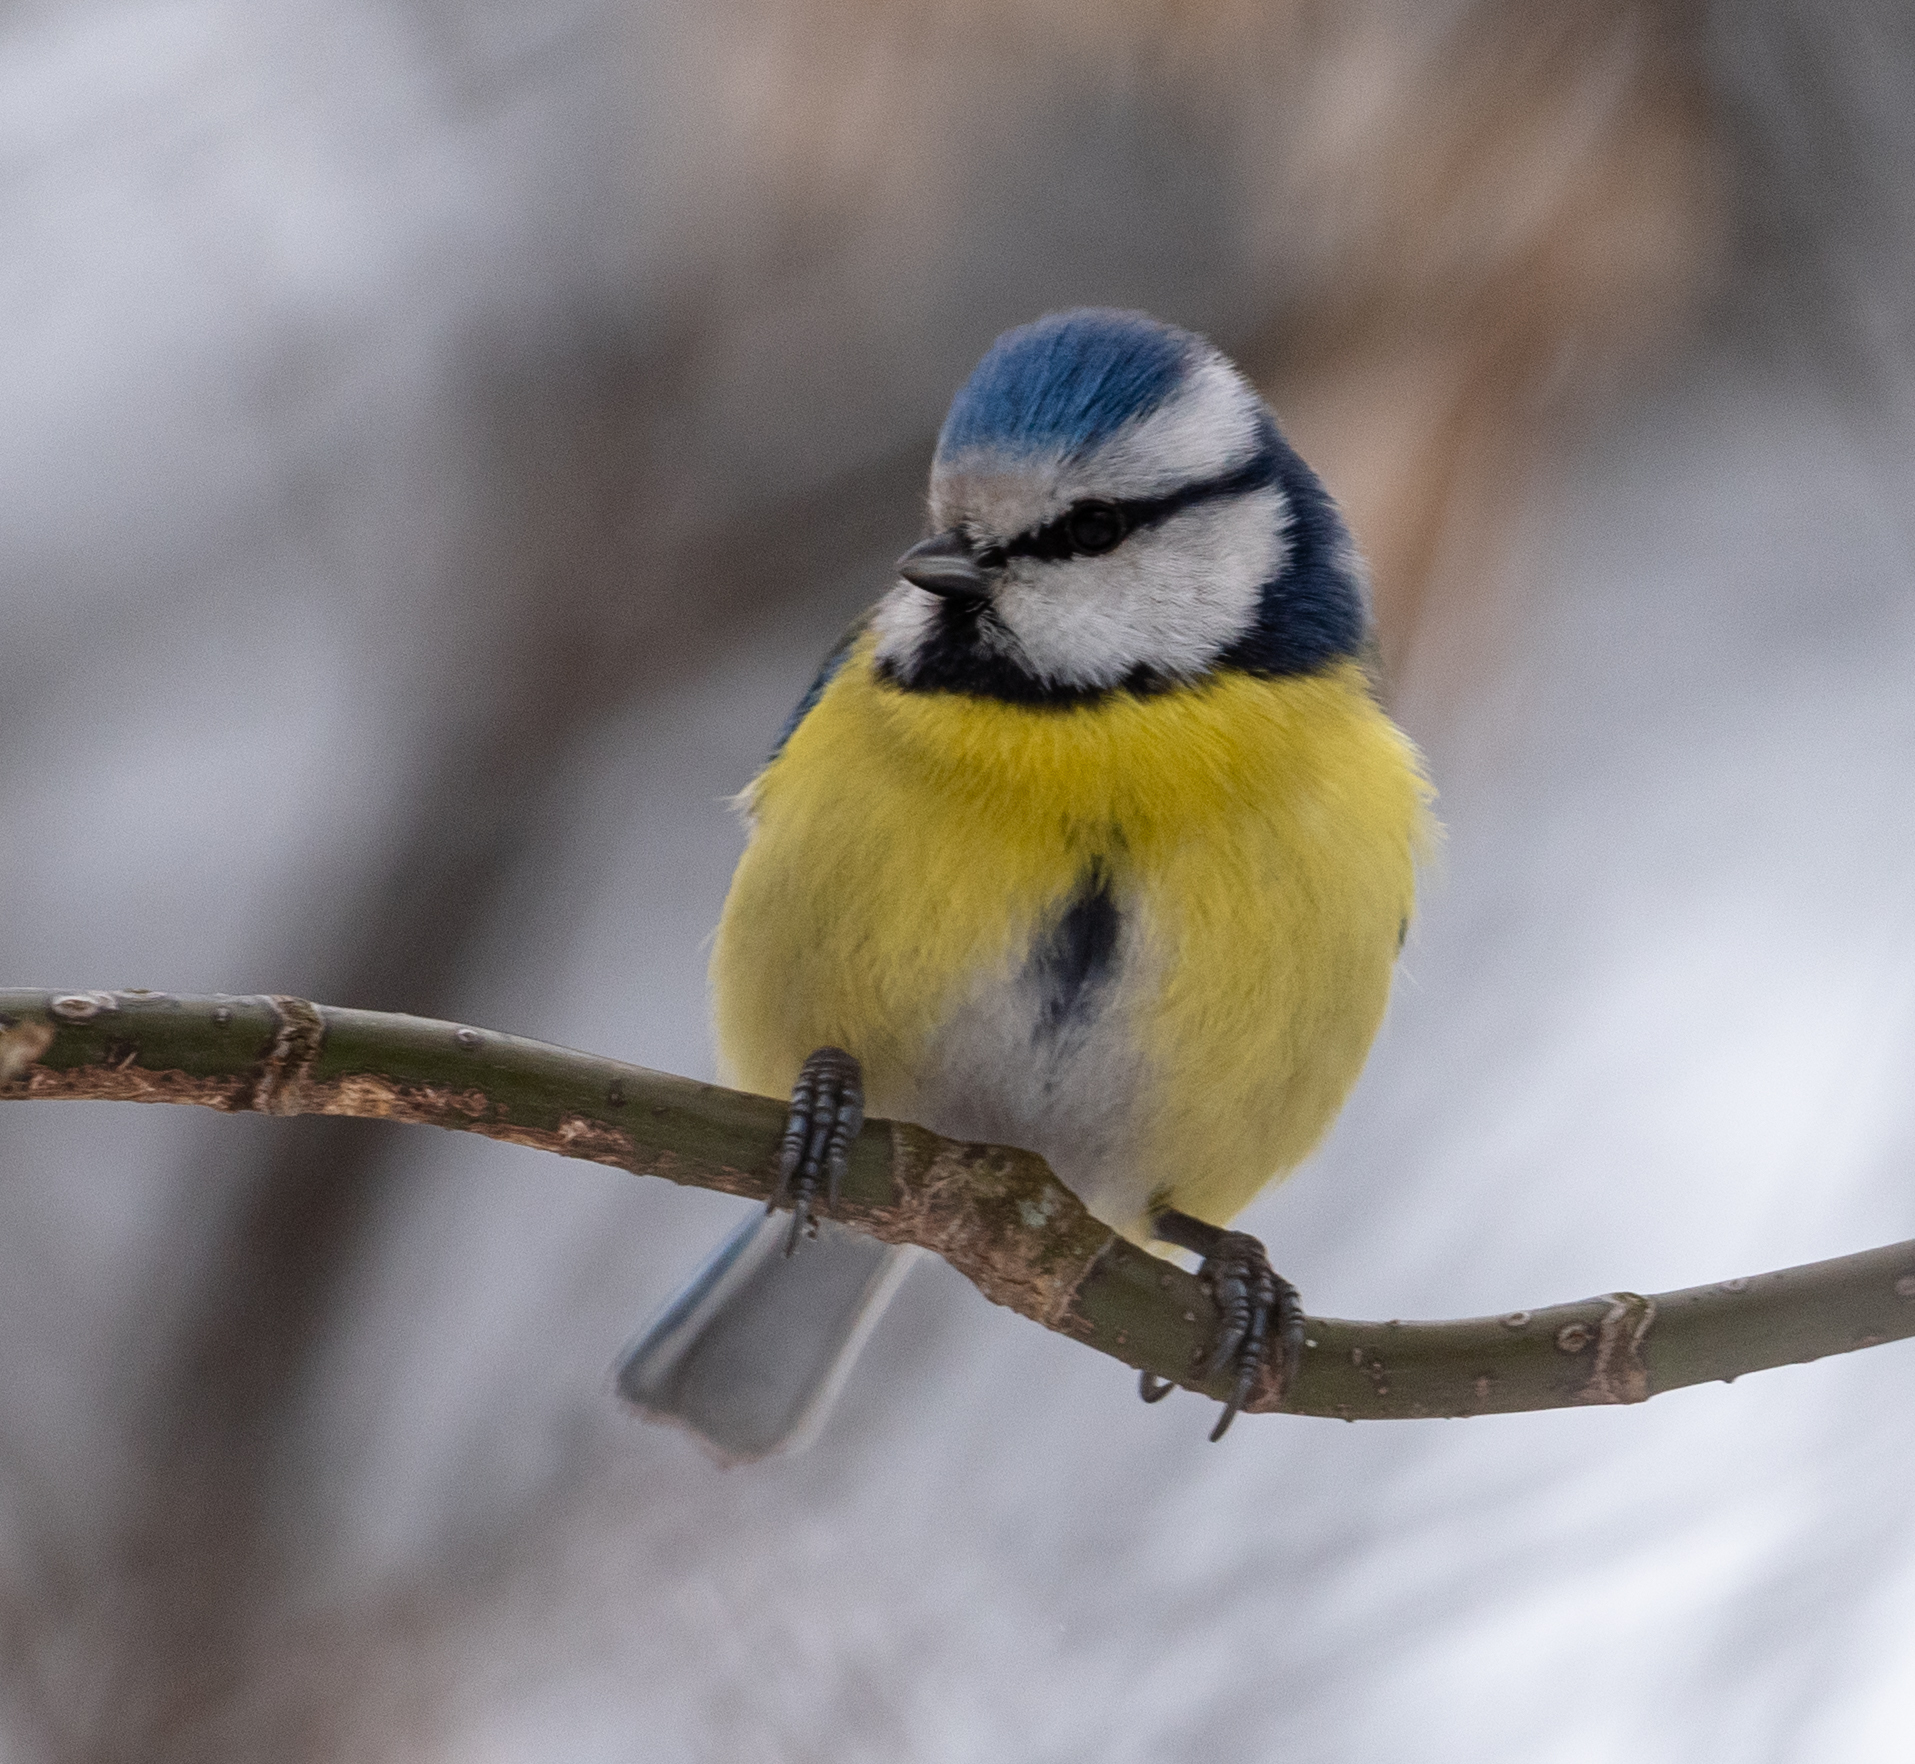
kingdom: Animalia
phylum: Chordata
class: Aves
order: Passeriformes
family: Paridae
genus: Cyanistes
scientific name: Cyanistes caeruleus
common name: Eurasian blue tit
